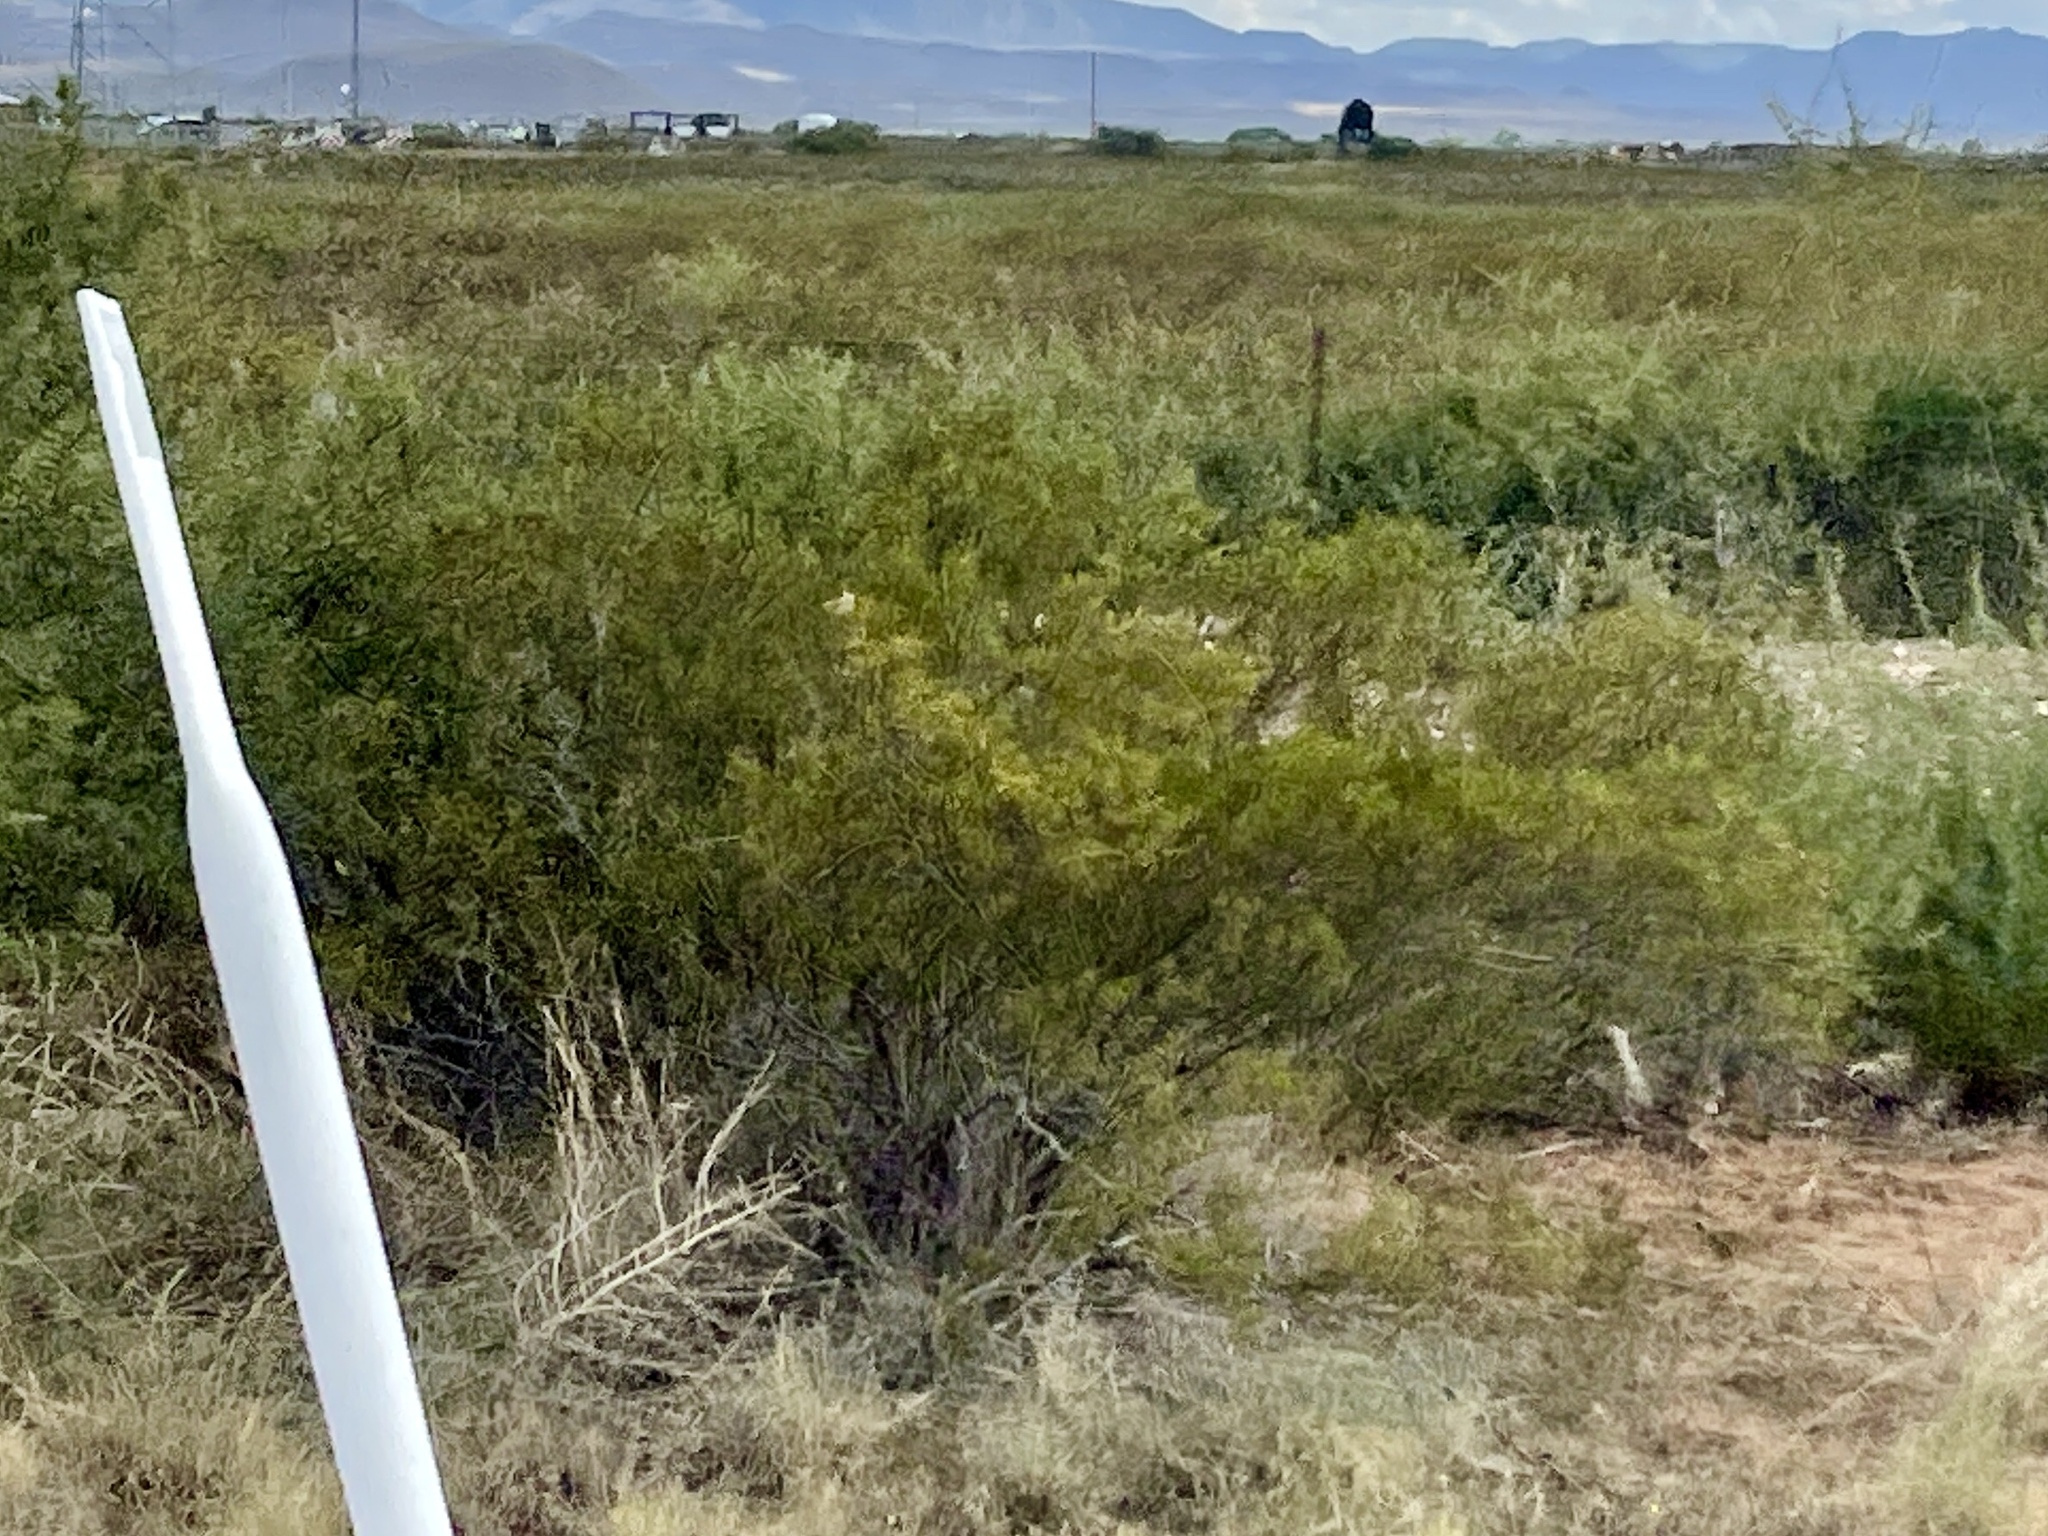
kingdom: Plantae
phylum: Tracheophyta
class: Magnoliopsida
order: Zygophyllales
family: Zygophyllaceae
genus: Larrea
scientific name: Larrea tridentata
